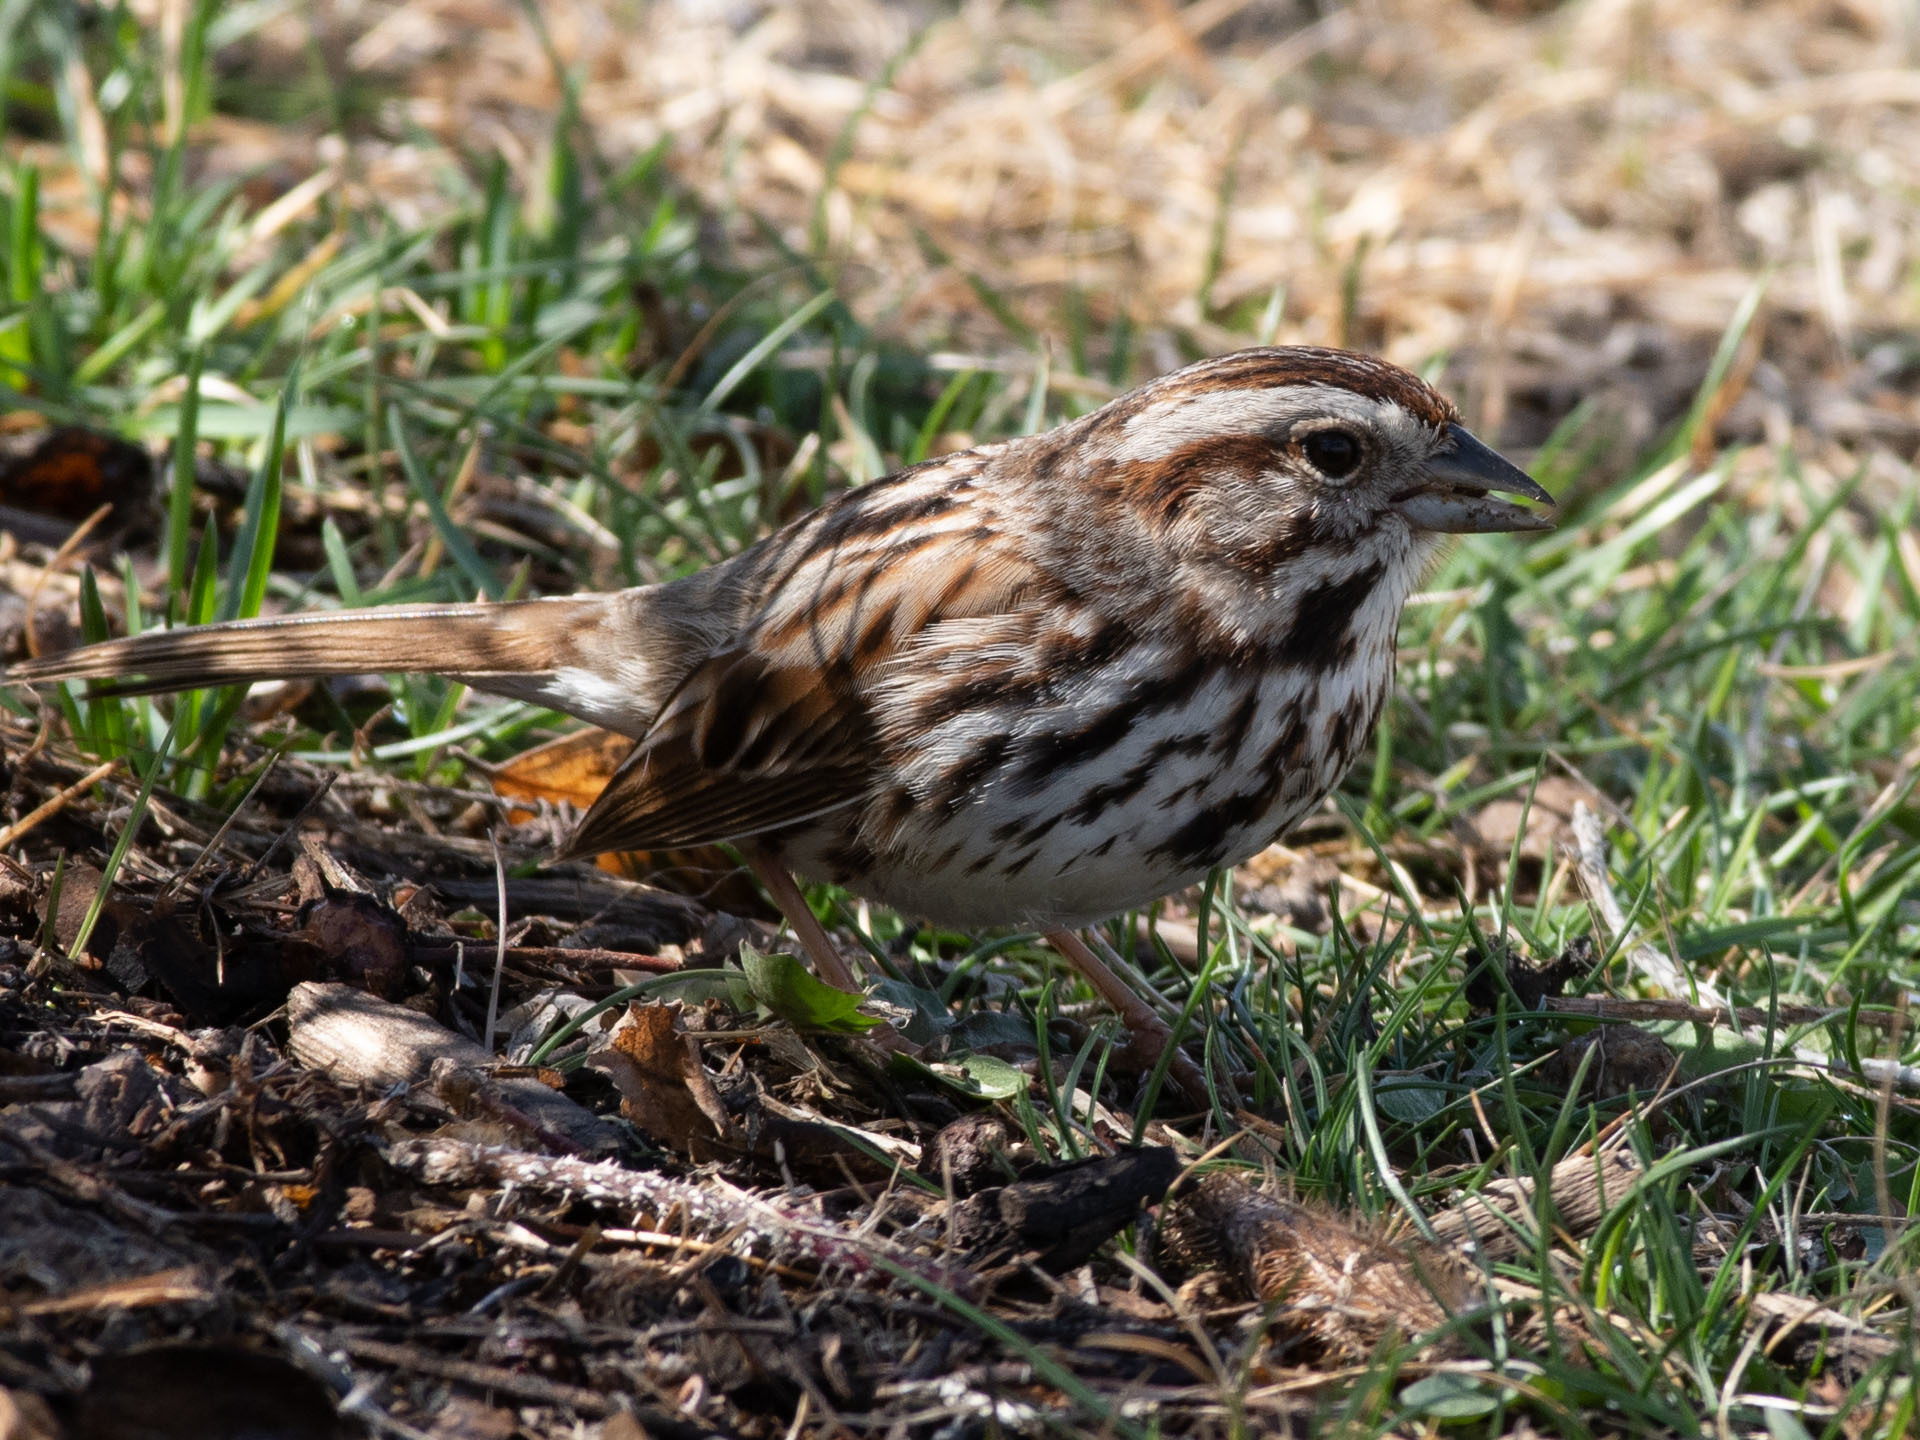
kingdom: Animalia
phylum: Chordata
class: Aves
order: Passeriformes
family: Passerellidae
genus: Melospiza
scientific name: Melospiza melodia
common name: Song sparrow
